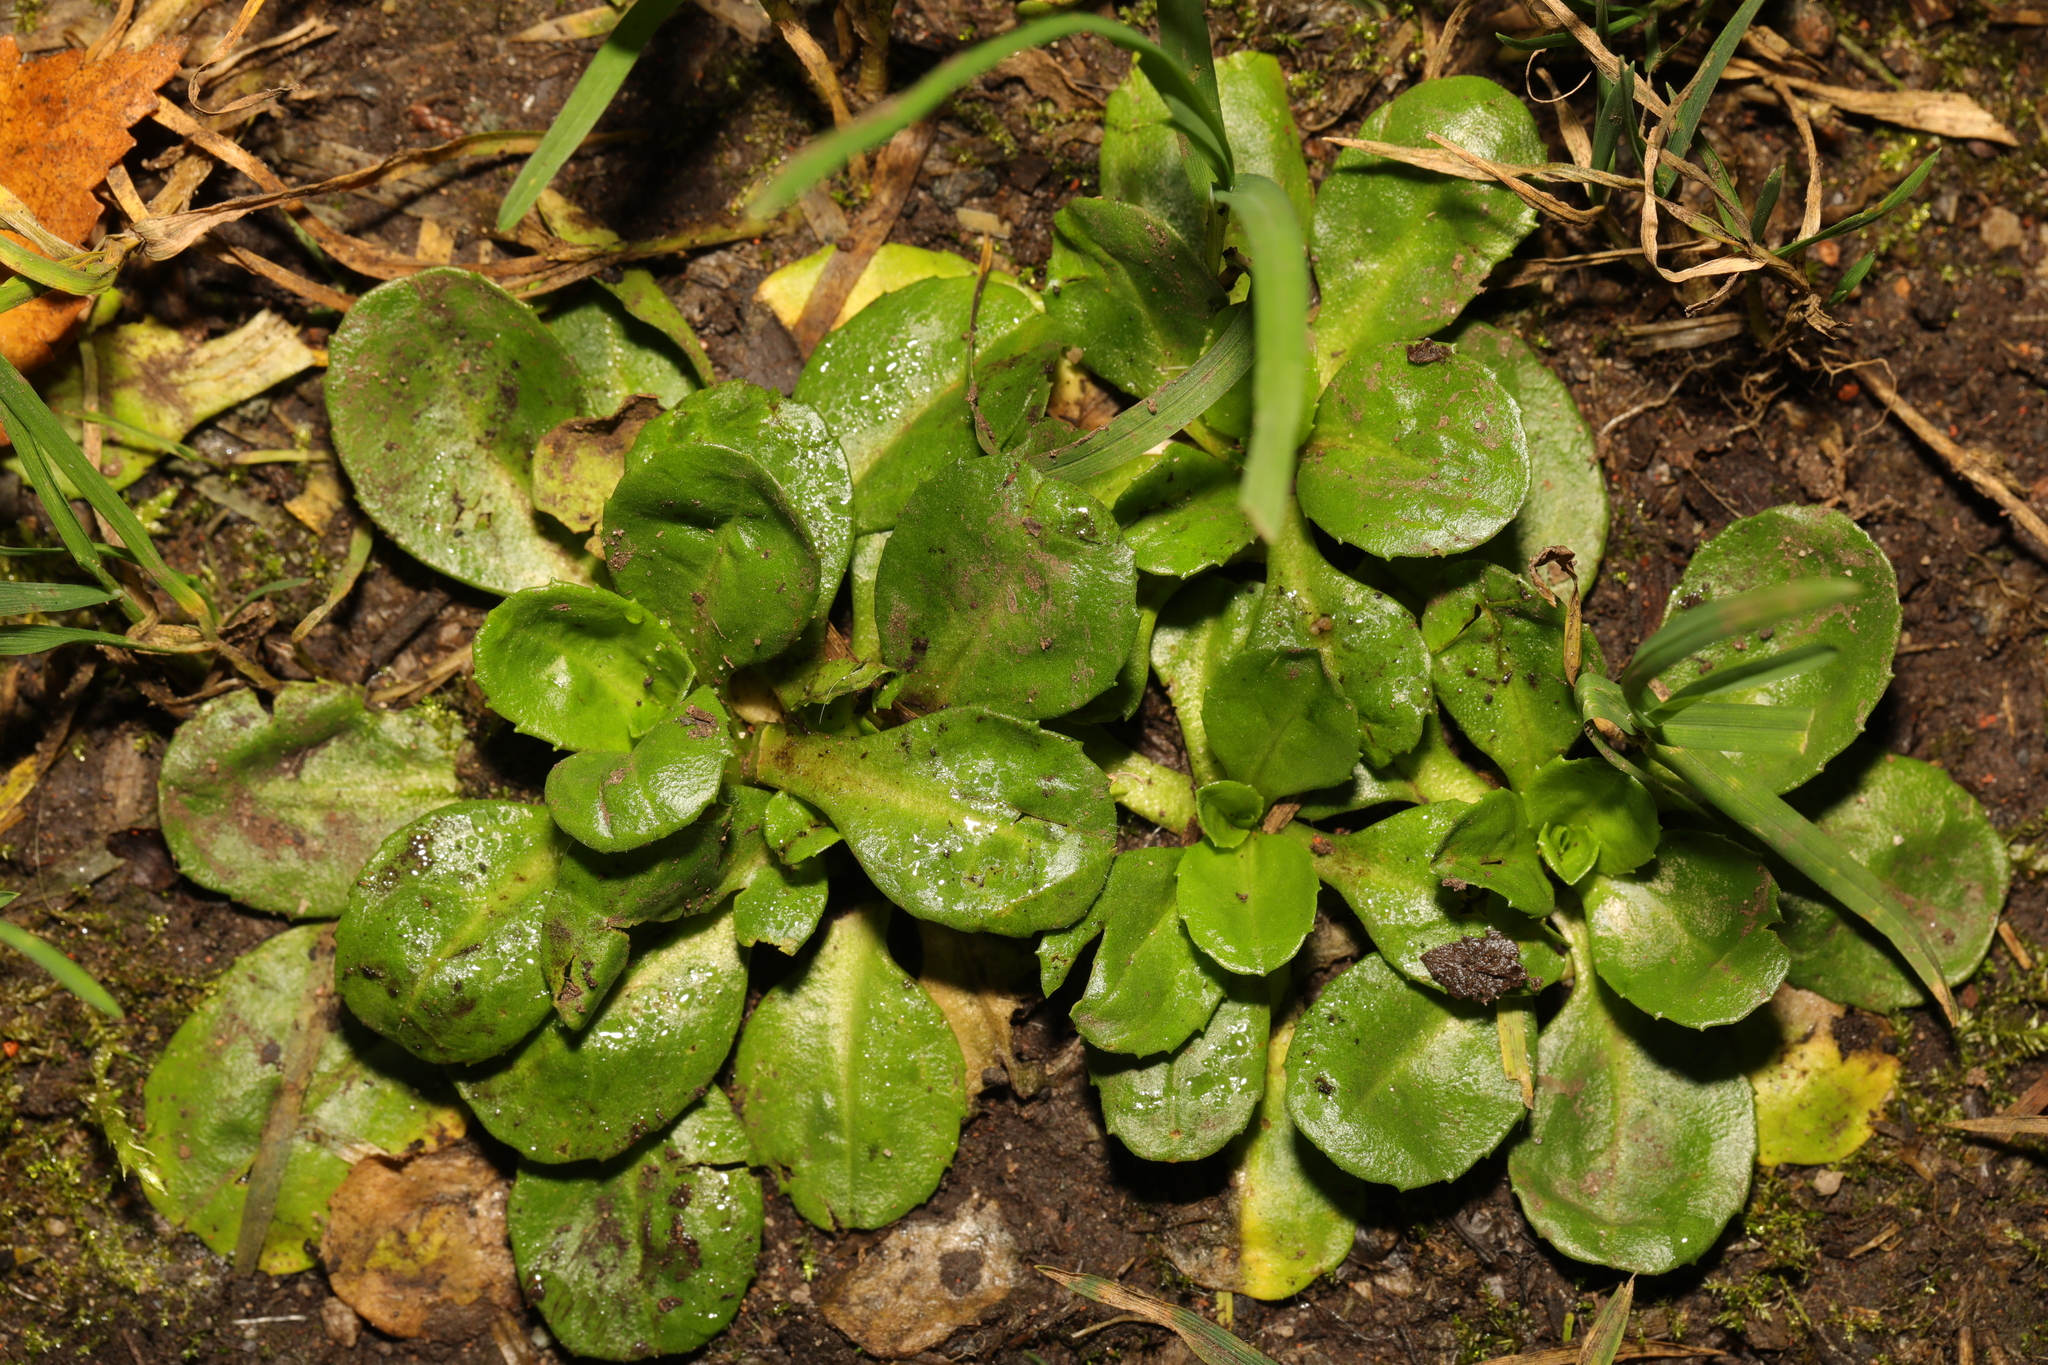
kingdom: Plantae
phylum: Tracheophyta
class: Magnoliopsida
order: Asterales
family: Asteraceae
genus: Bellis
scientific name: Bellis perennis
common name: Lawndaisy
